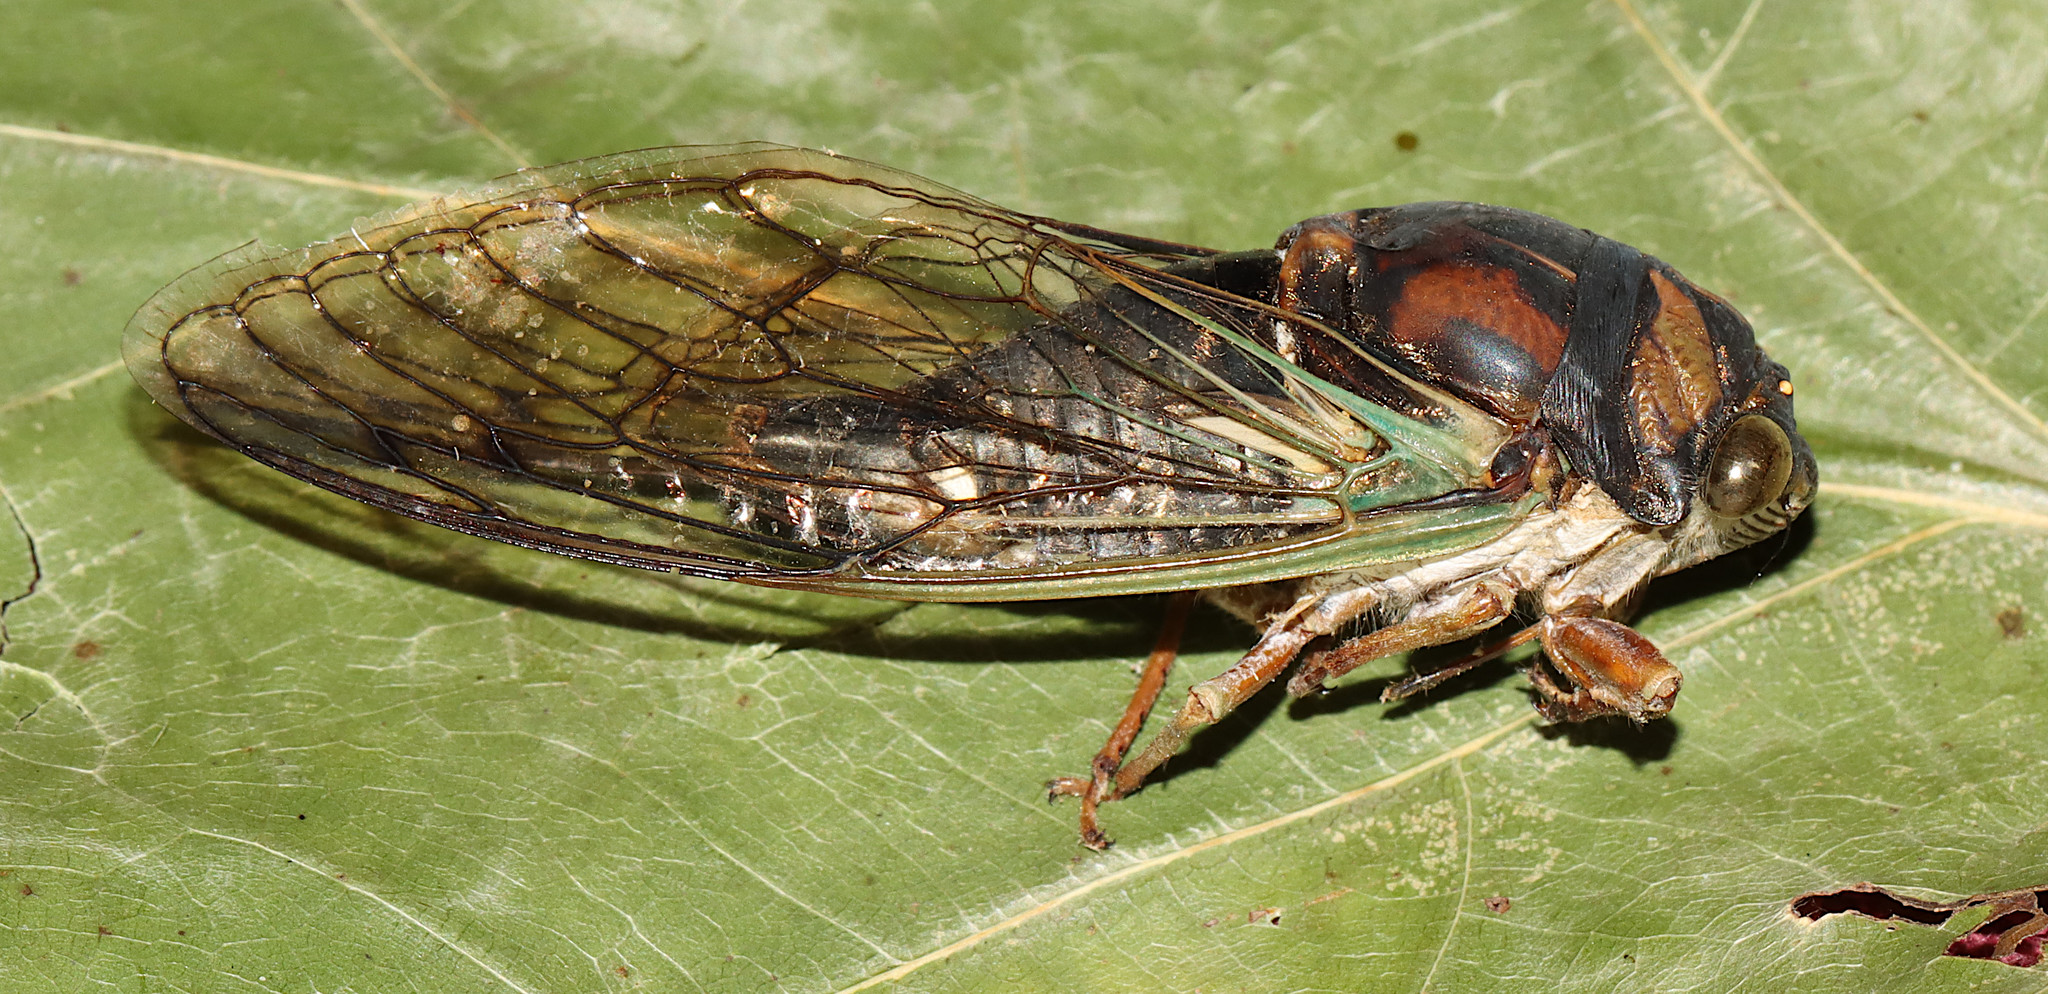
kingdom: Animalia
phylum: Arthropoda
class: Insecta
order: Hemiptera
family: Cicadidae
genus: Neotibicen
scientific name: Neotibicen lyricen
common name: Lyric cicada
